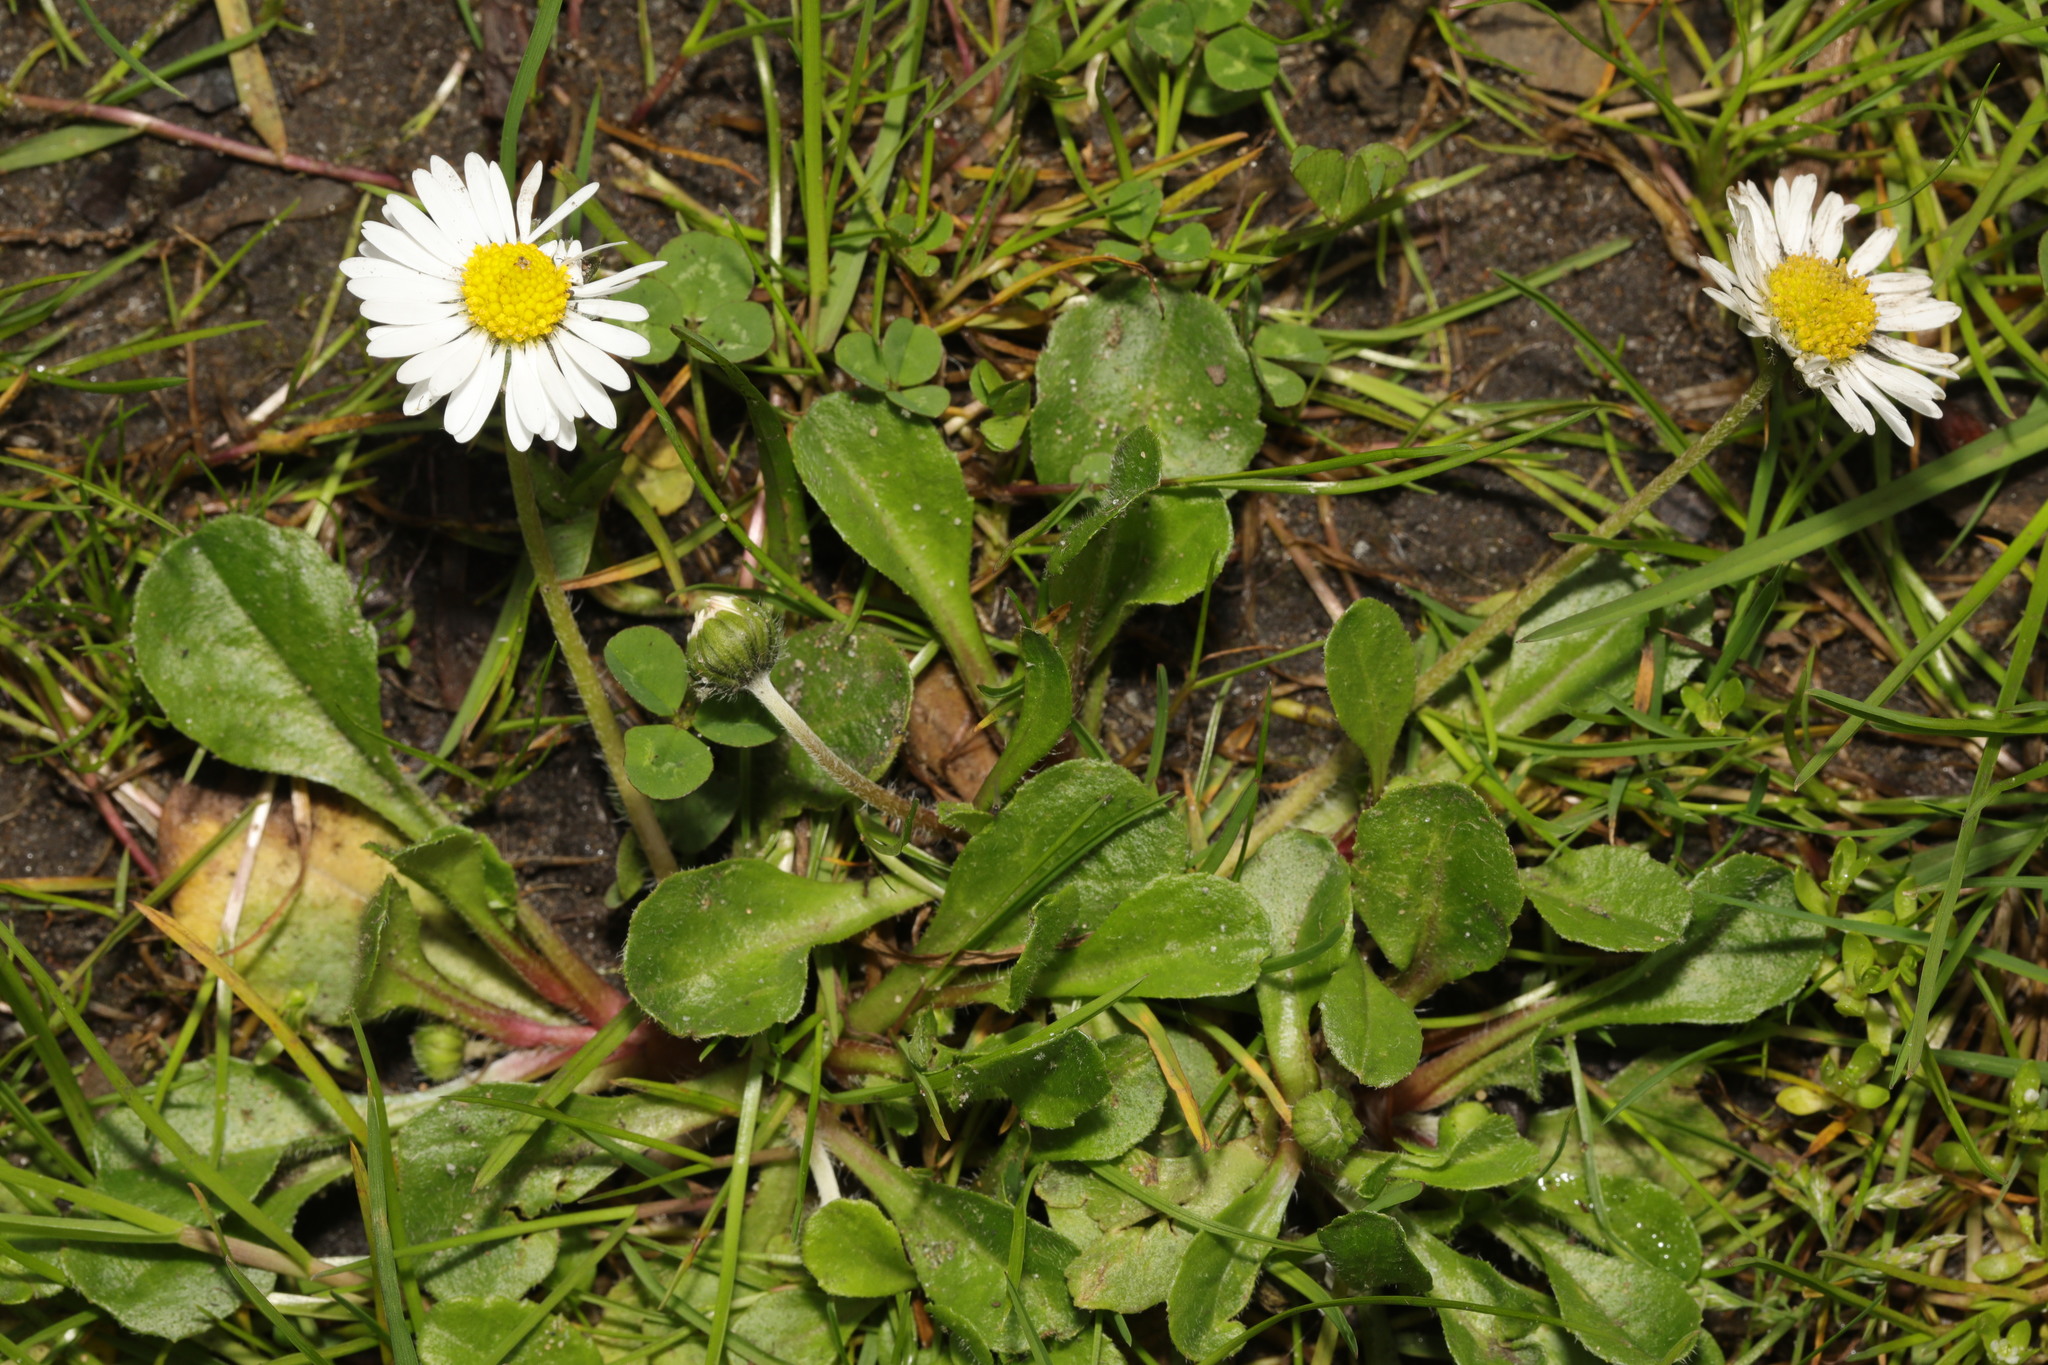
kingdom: Plantae
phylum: Tracheophyta
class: Magnoliopsida
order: Asterales
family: Asteraceae
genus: Bellis
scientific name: Bellis perennis
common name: Lawndaisy
